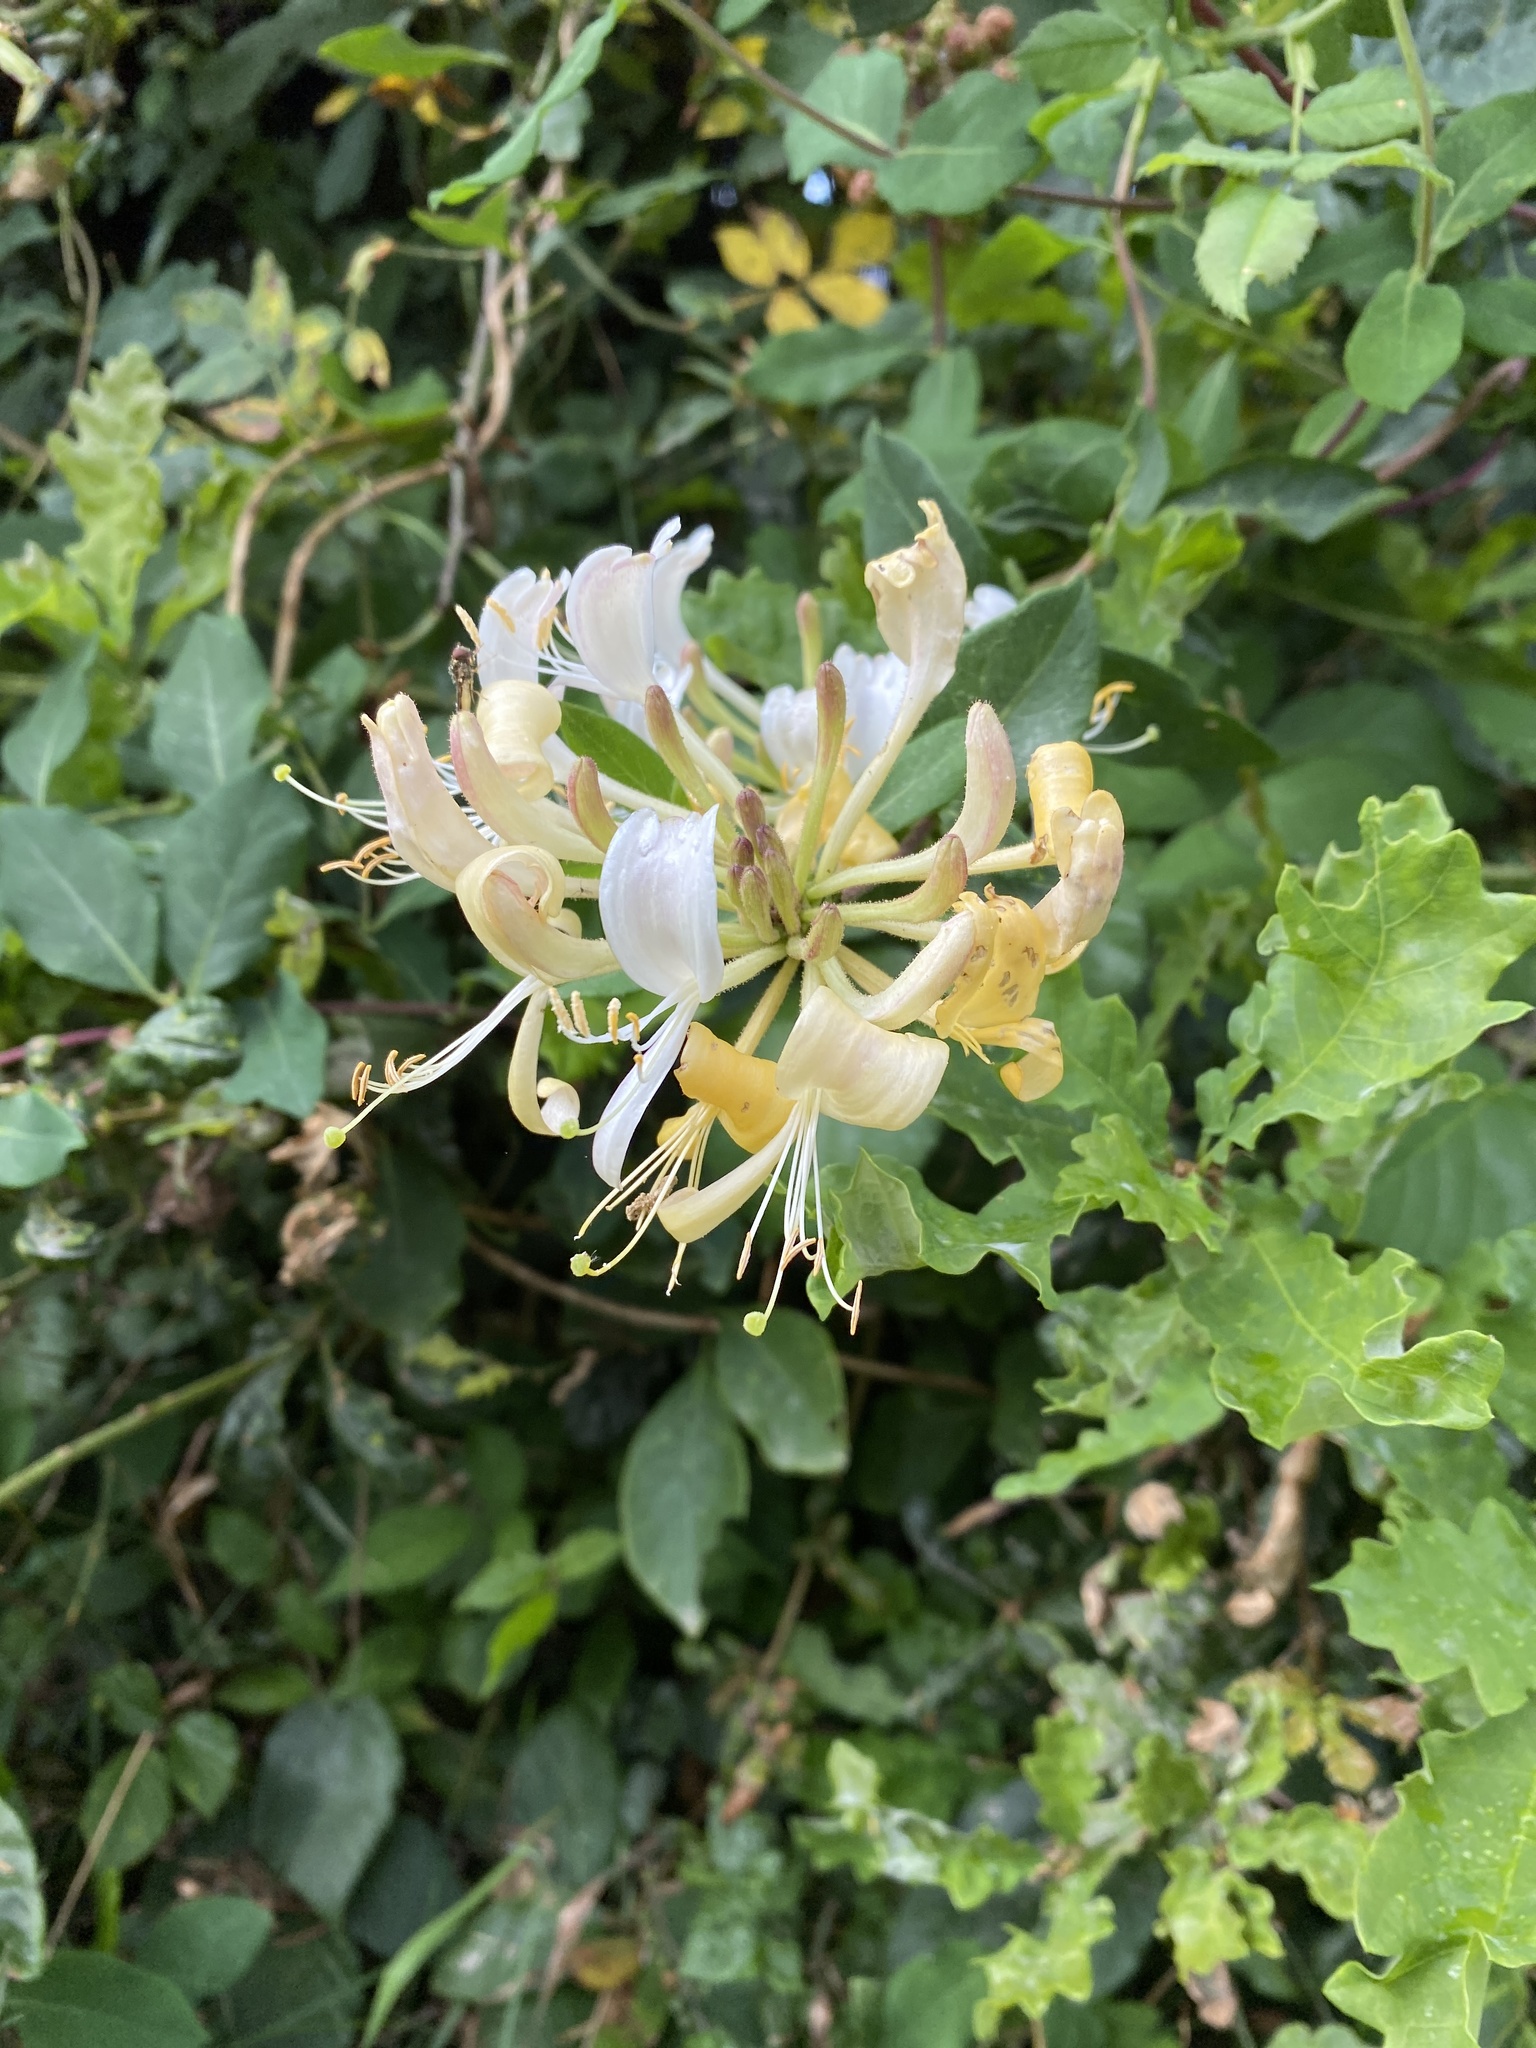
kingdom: Plantae
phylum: Tracheophyta
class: Magnoliopsida
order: Dipsacales
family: Caprifoliaceae
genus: Lonicera
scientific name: Lonicera periclymenum
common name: European honeysuckle
